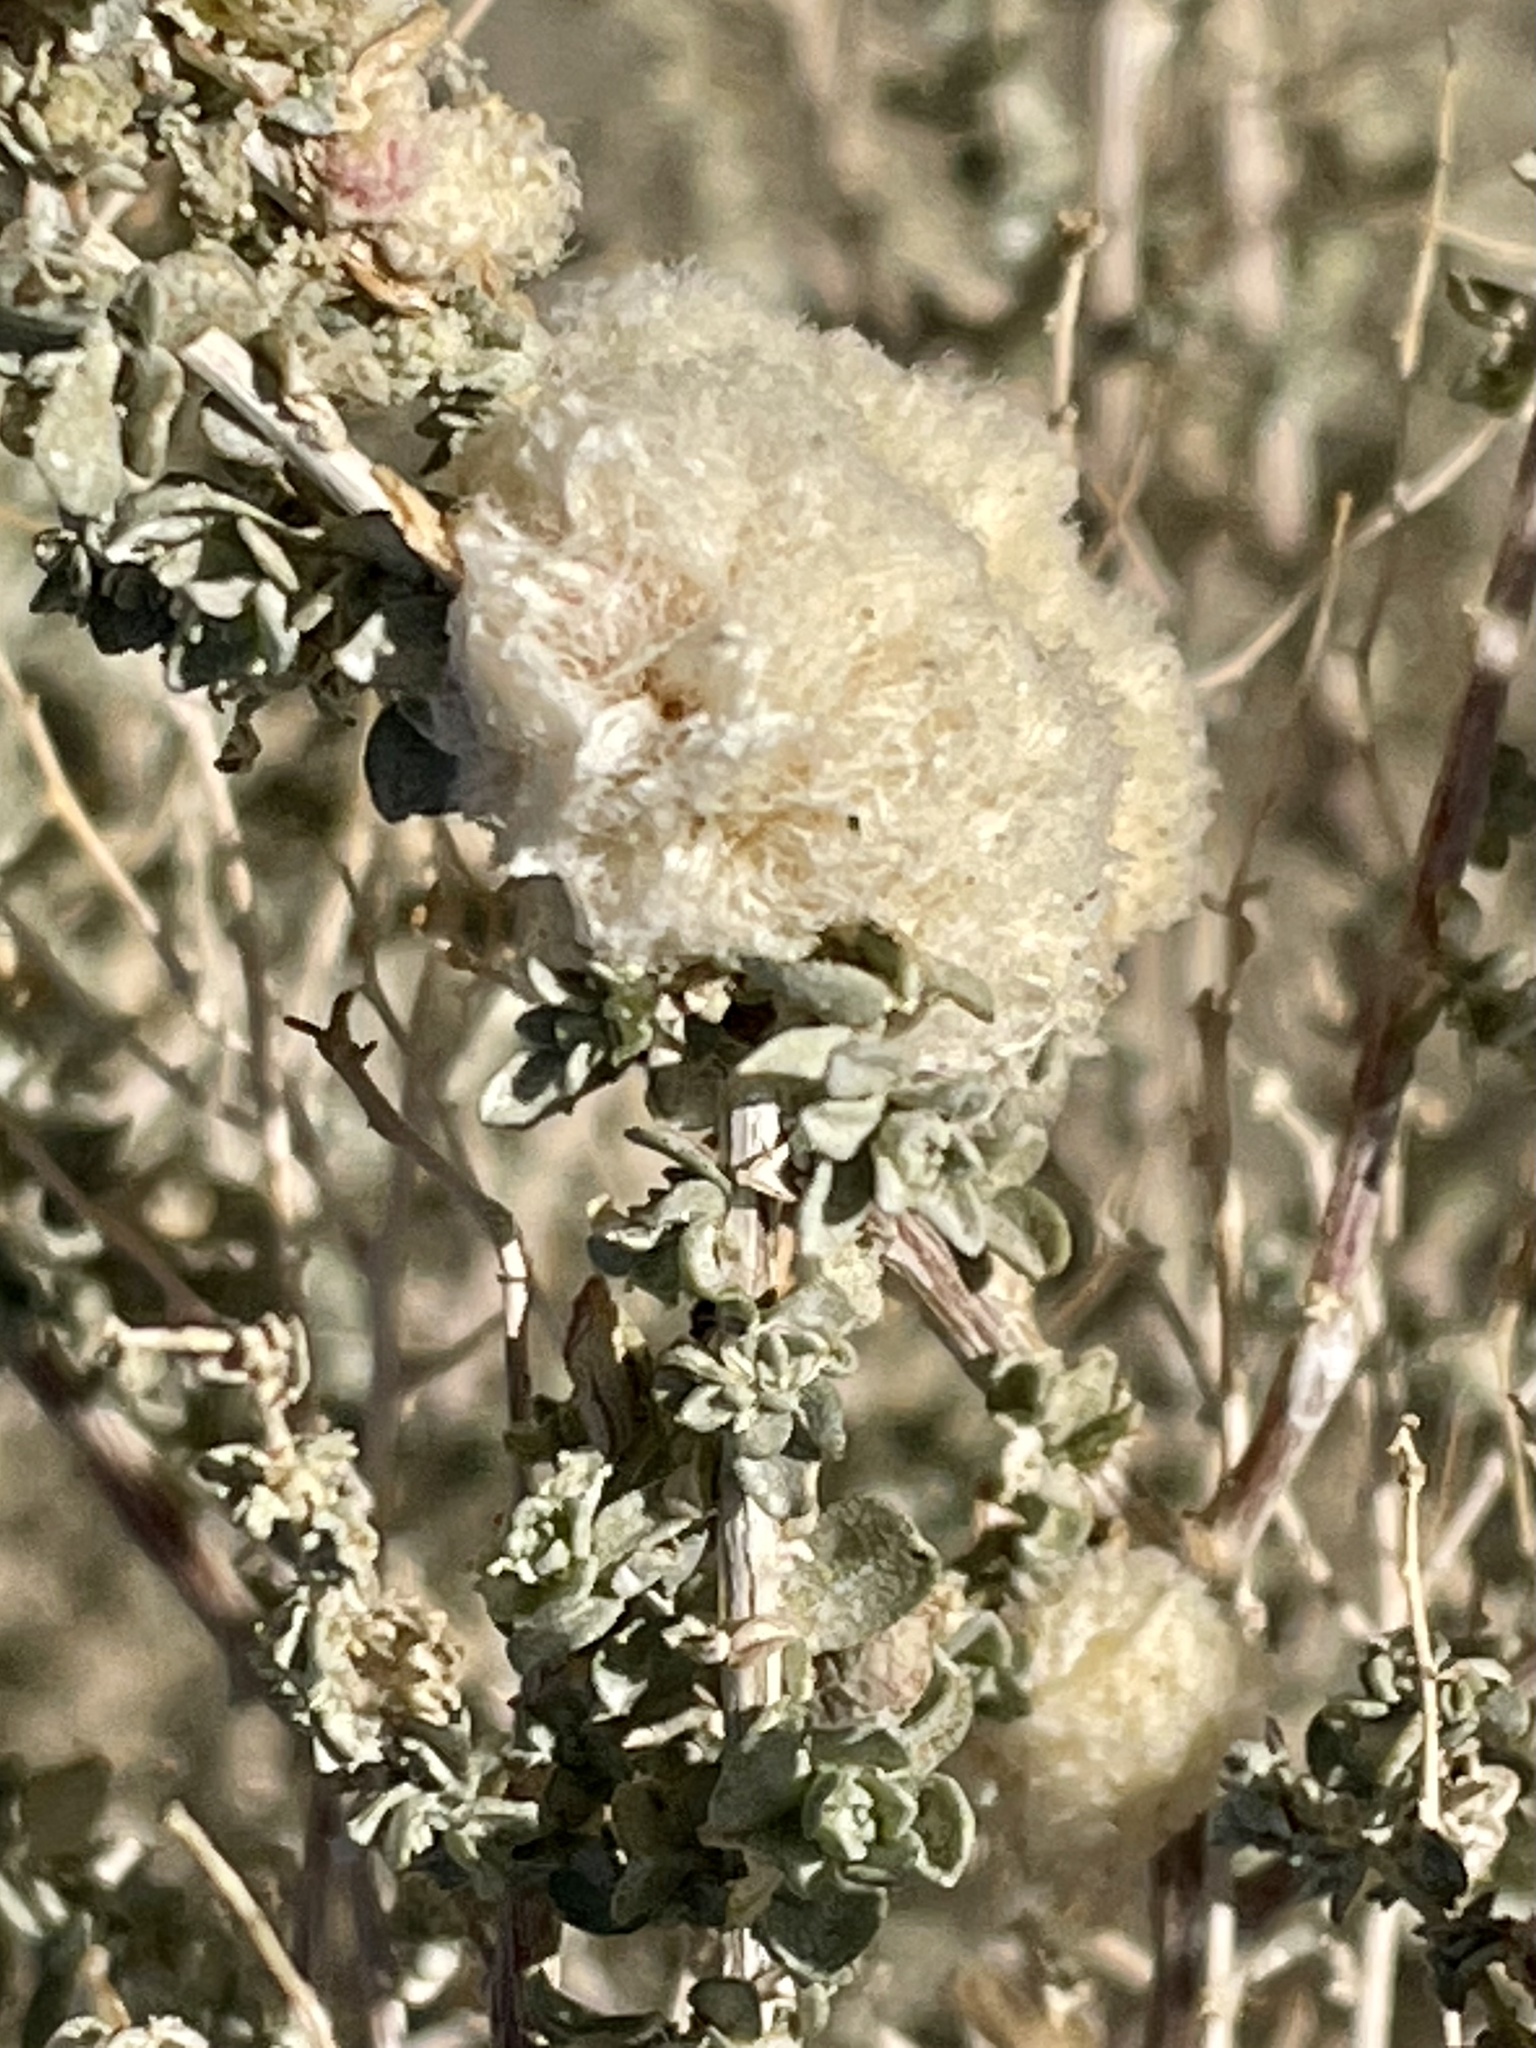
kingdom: Animalia
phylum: Arthropoda
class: Insecta
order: Diptera
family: Cecidomyiidae
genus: Asphondylia
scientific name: Asphondylia floccosa
